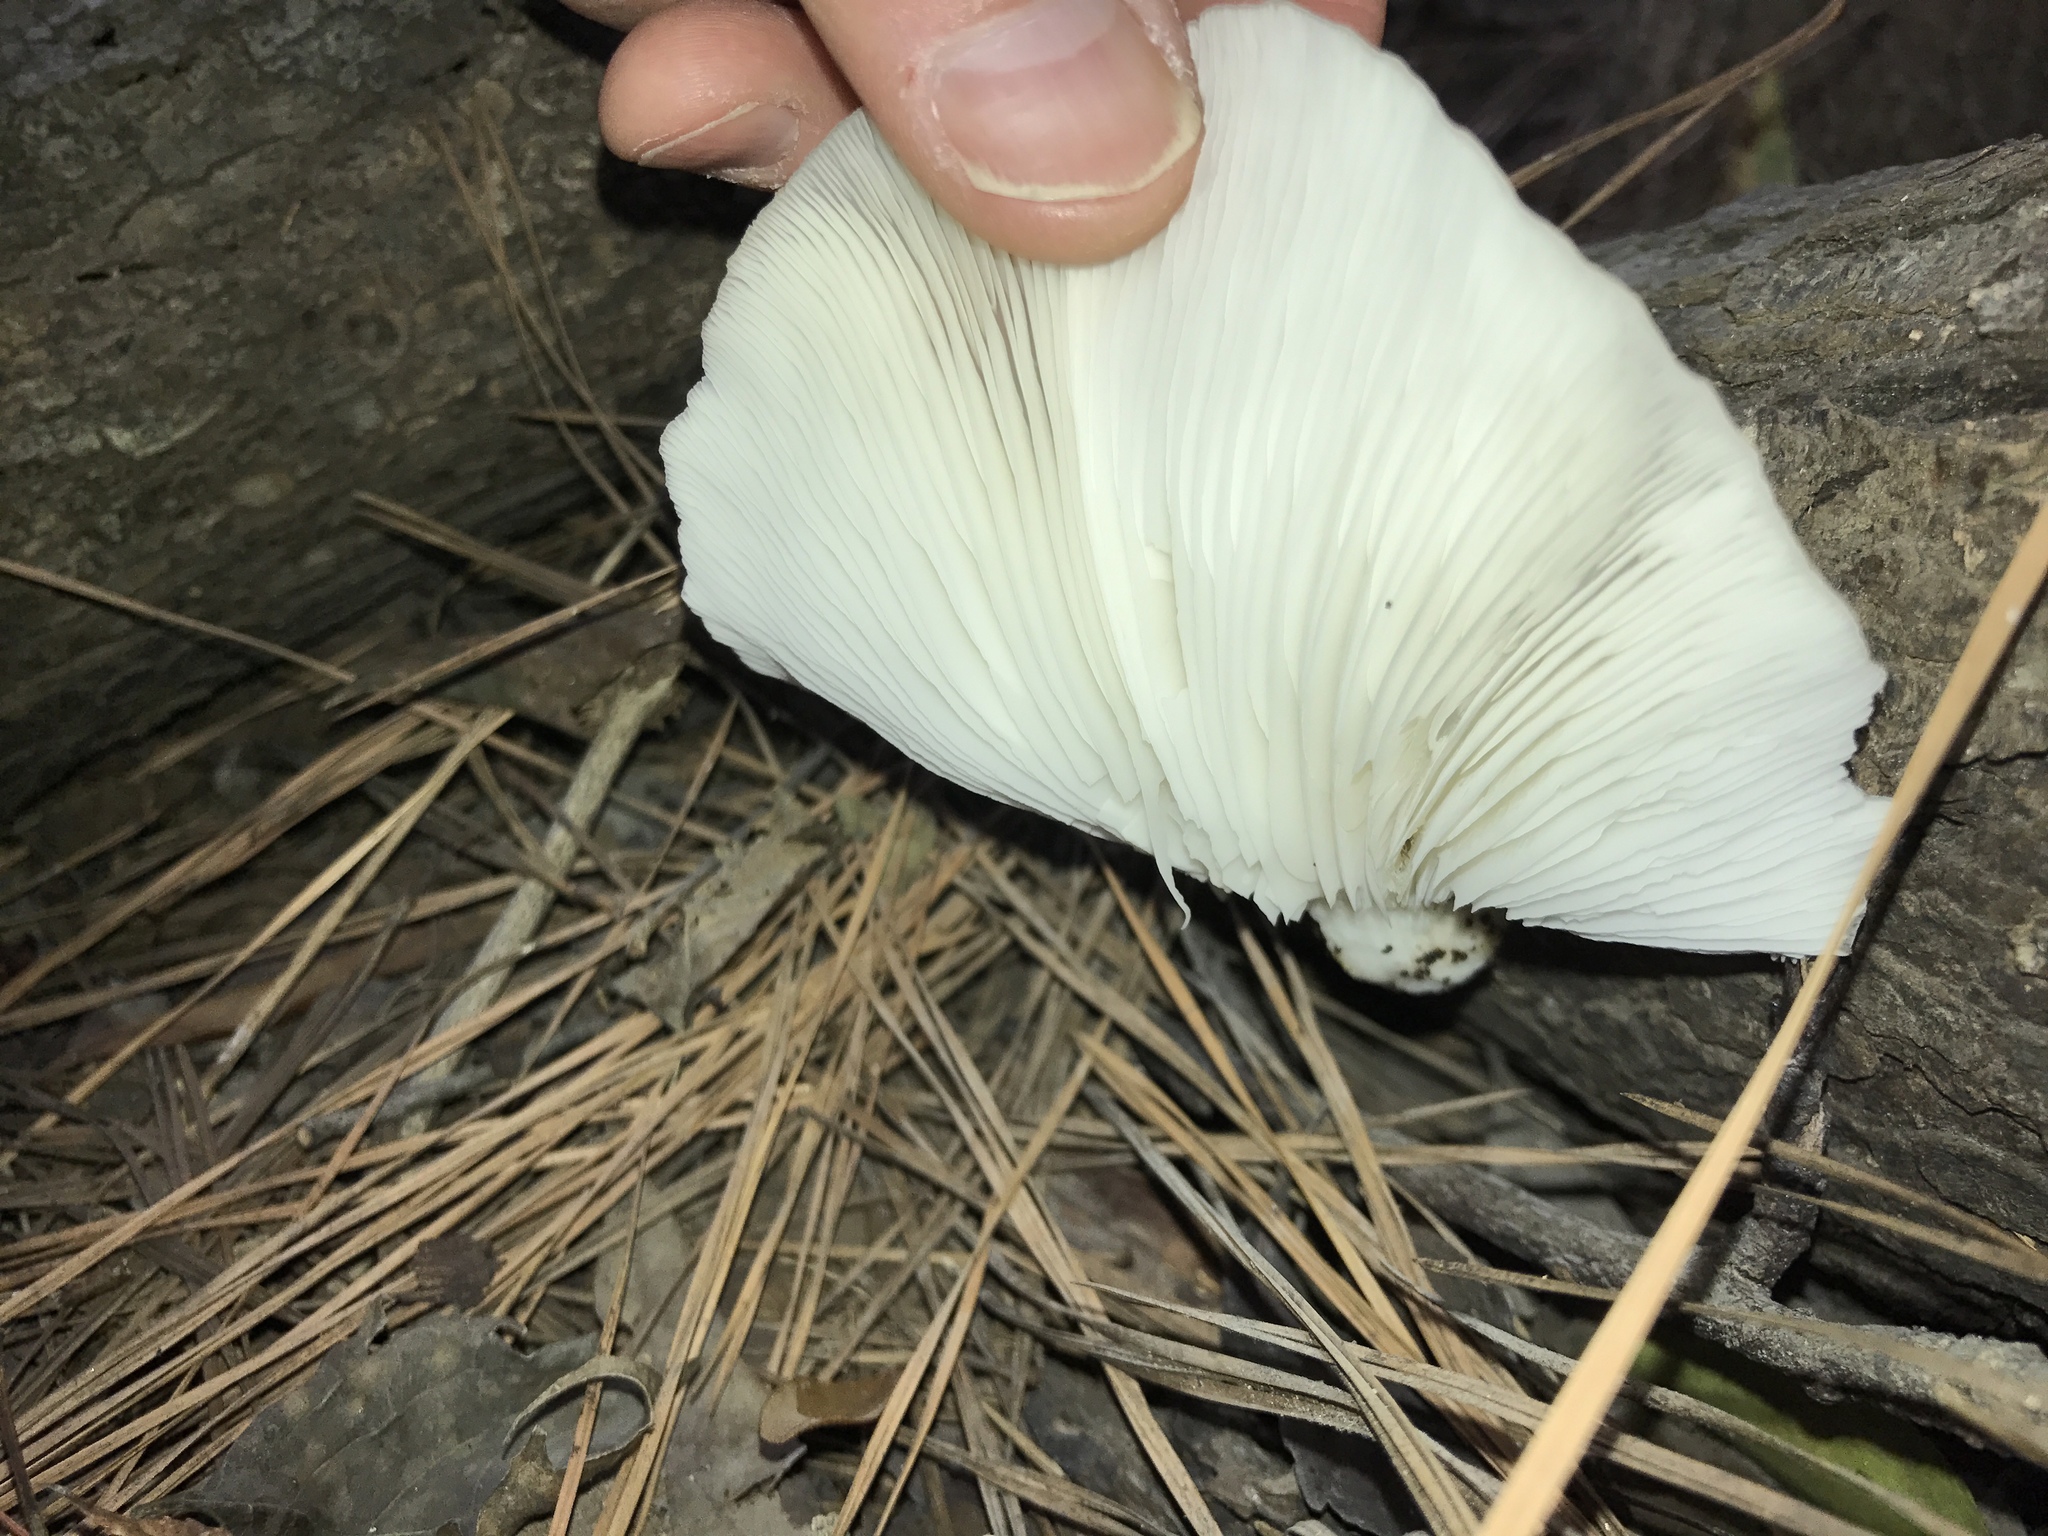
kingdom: Fungi
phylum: Basidiomycota
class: Agaricomycetes
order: Agaricales
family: Pleurotaceae
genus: Pleurotus
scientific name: Pleurotus ostreatus
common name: Oyster mushroom
